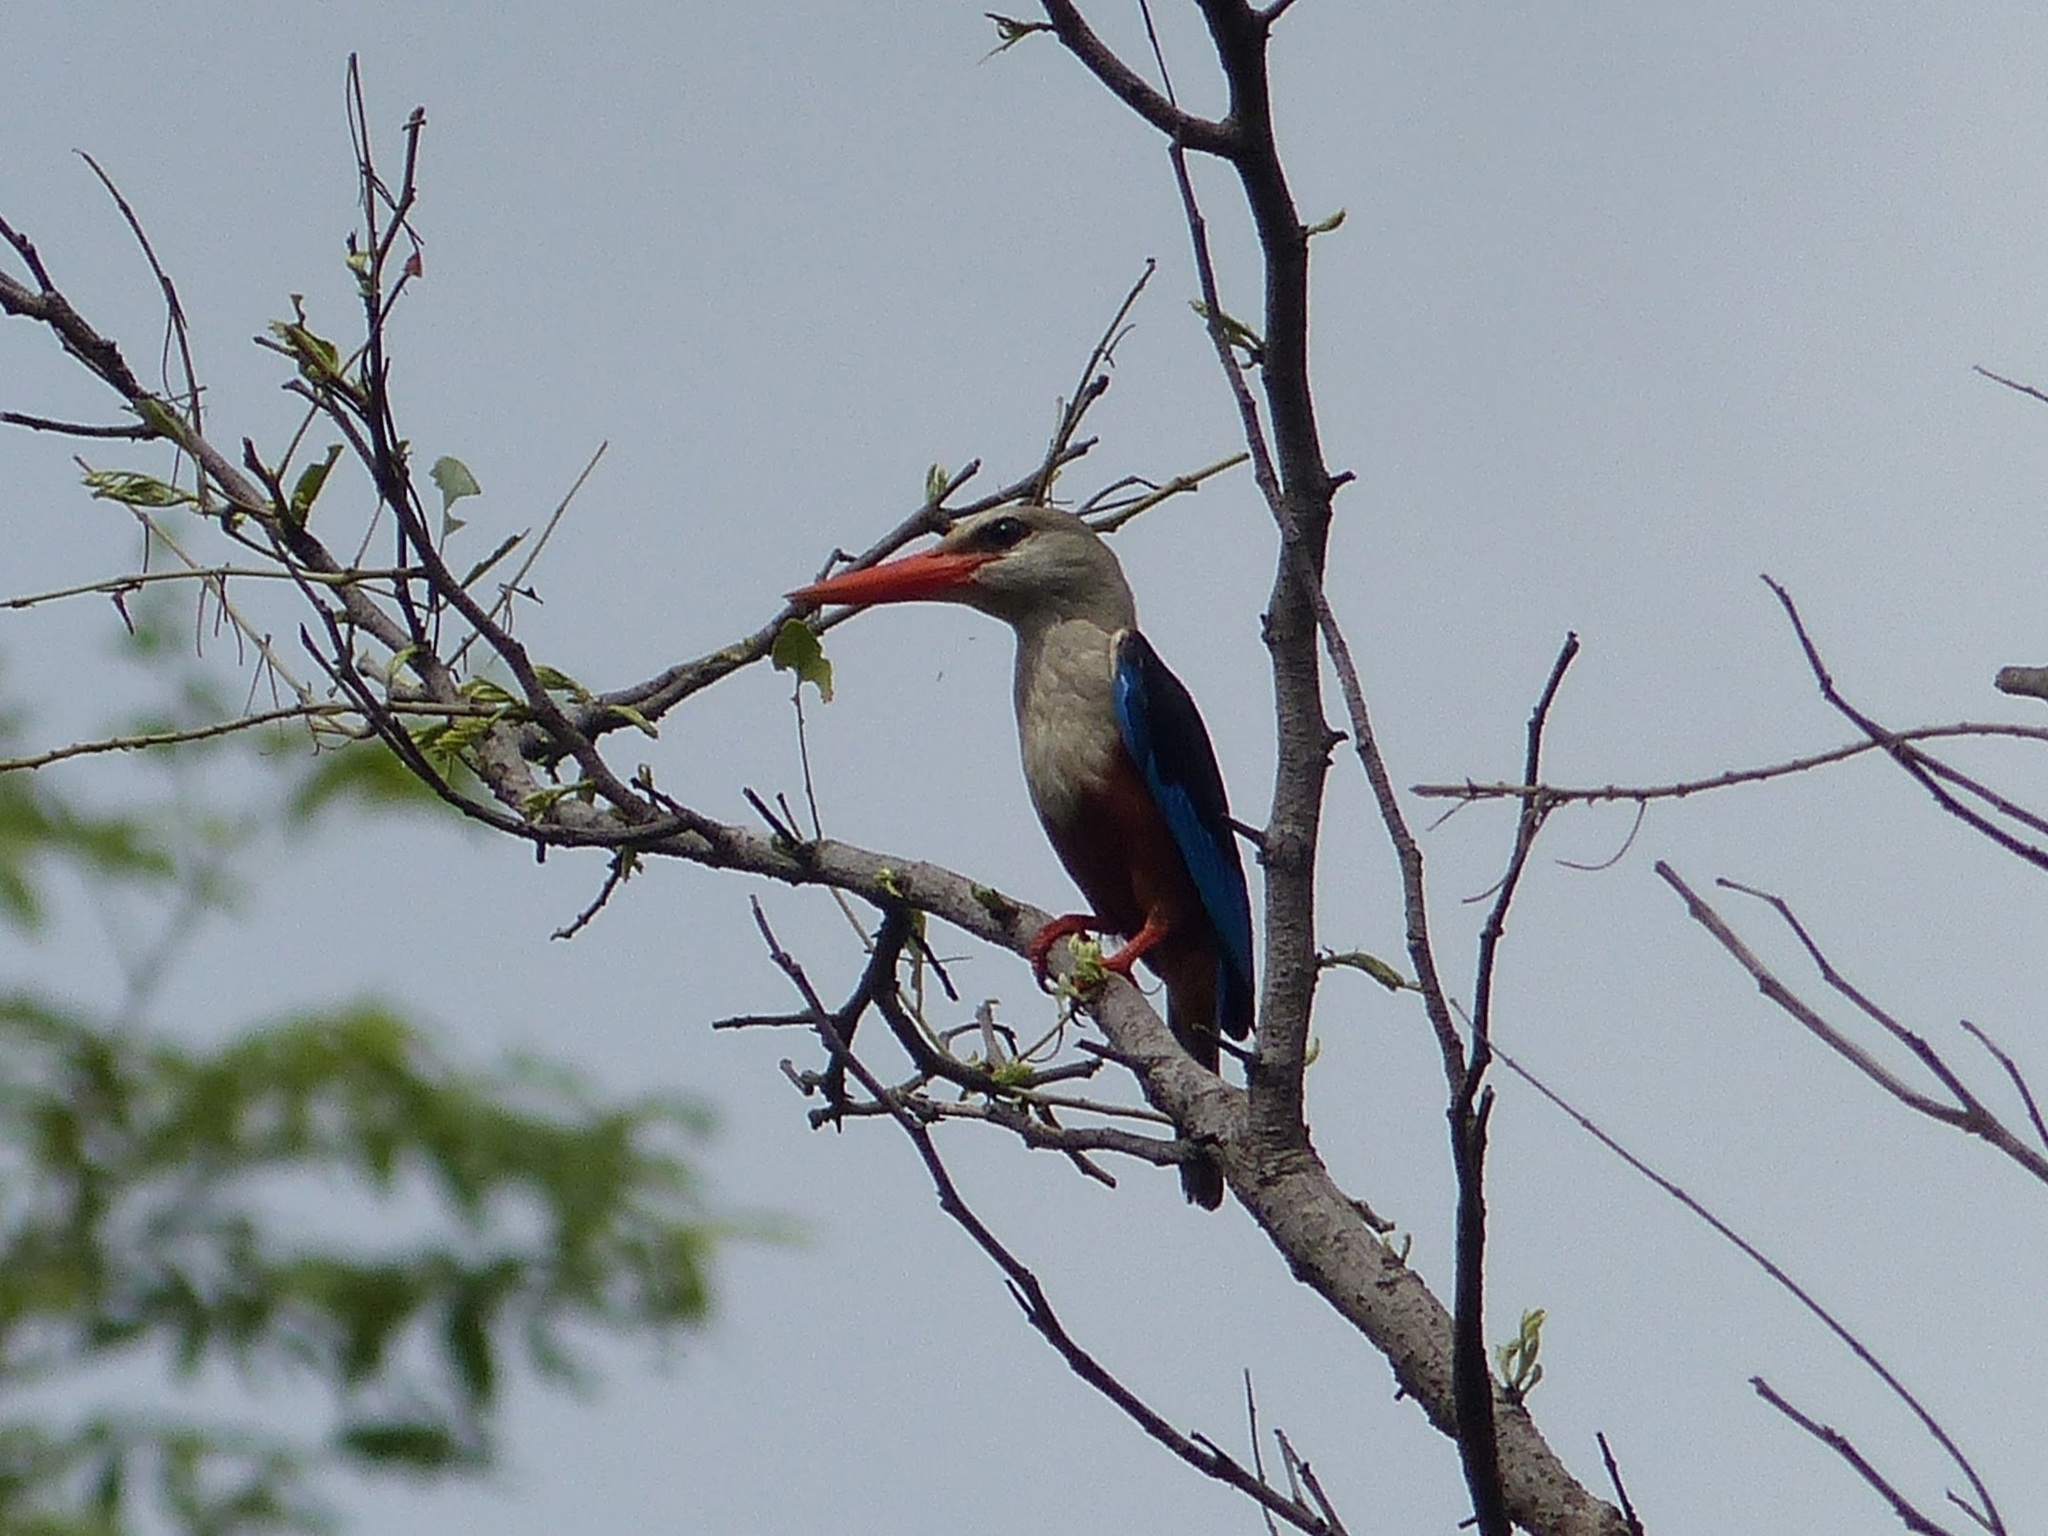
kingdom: Animalia
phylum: Chordata
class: Aves
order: Coraciiformes
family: Alcedinidae
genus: Halcyon
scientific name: Halcyon leucocephala
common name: Grey-headed kingfisher
